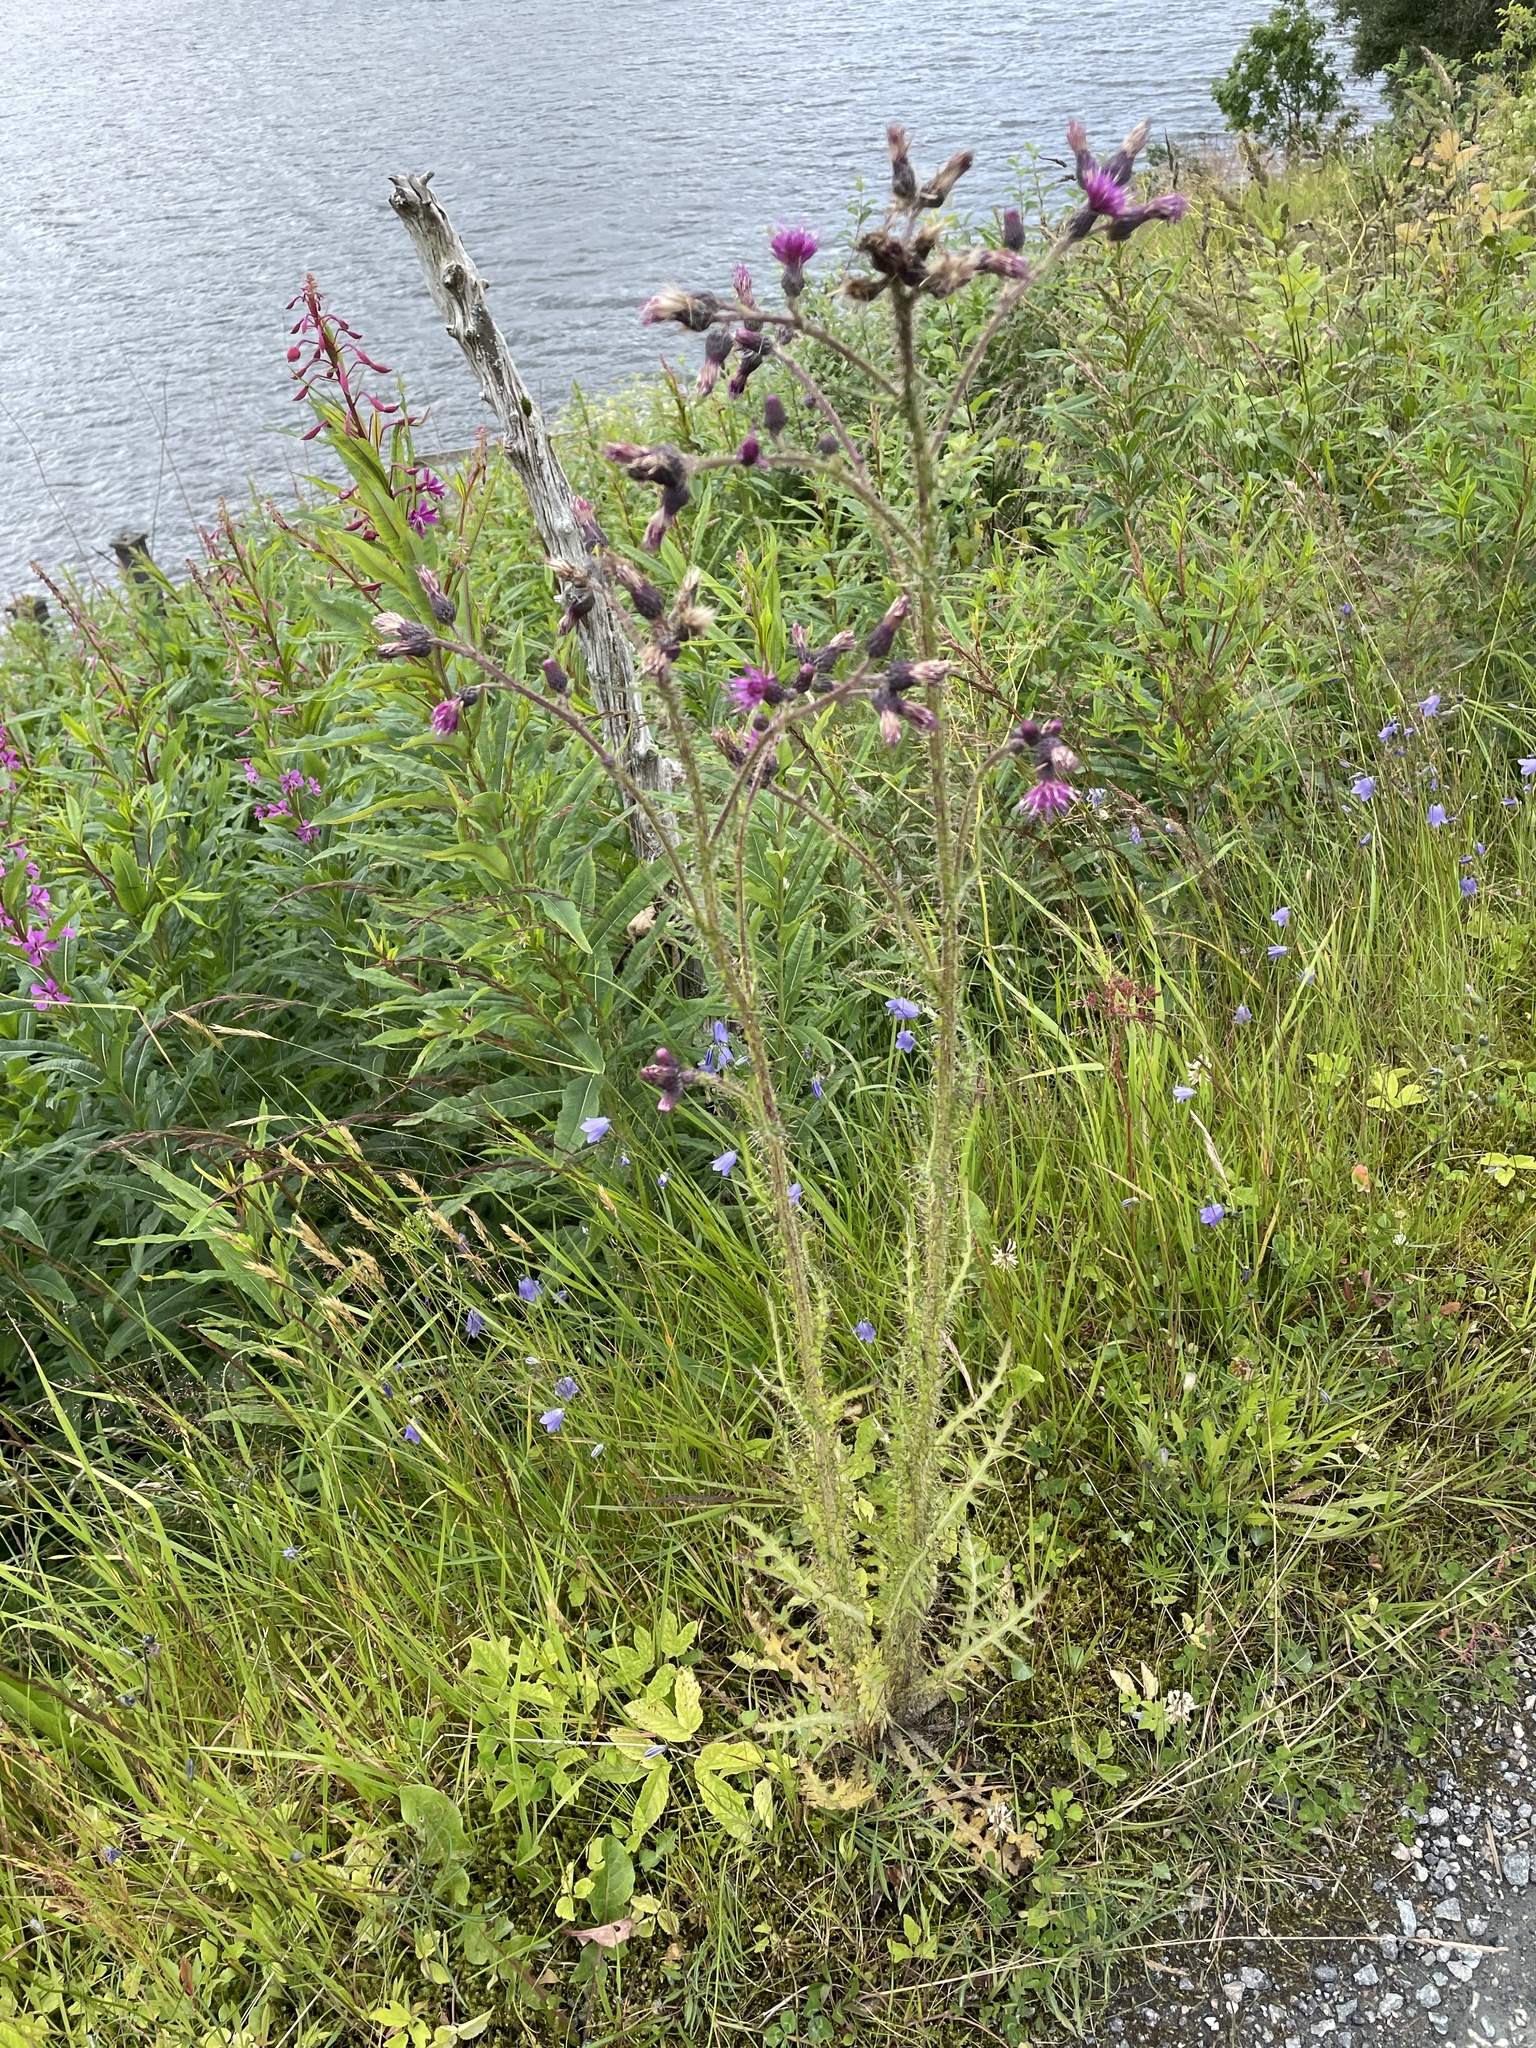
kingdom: Plantae
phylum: Tracheophyta
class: Magnoliopsida
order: Asterales
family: Asteraceae
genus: Cirsium
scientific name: Cirsium palustre
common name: Marsh thistle
